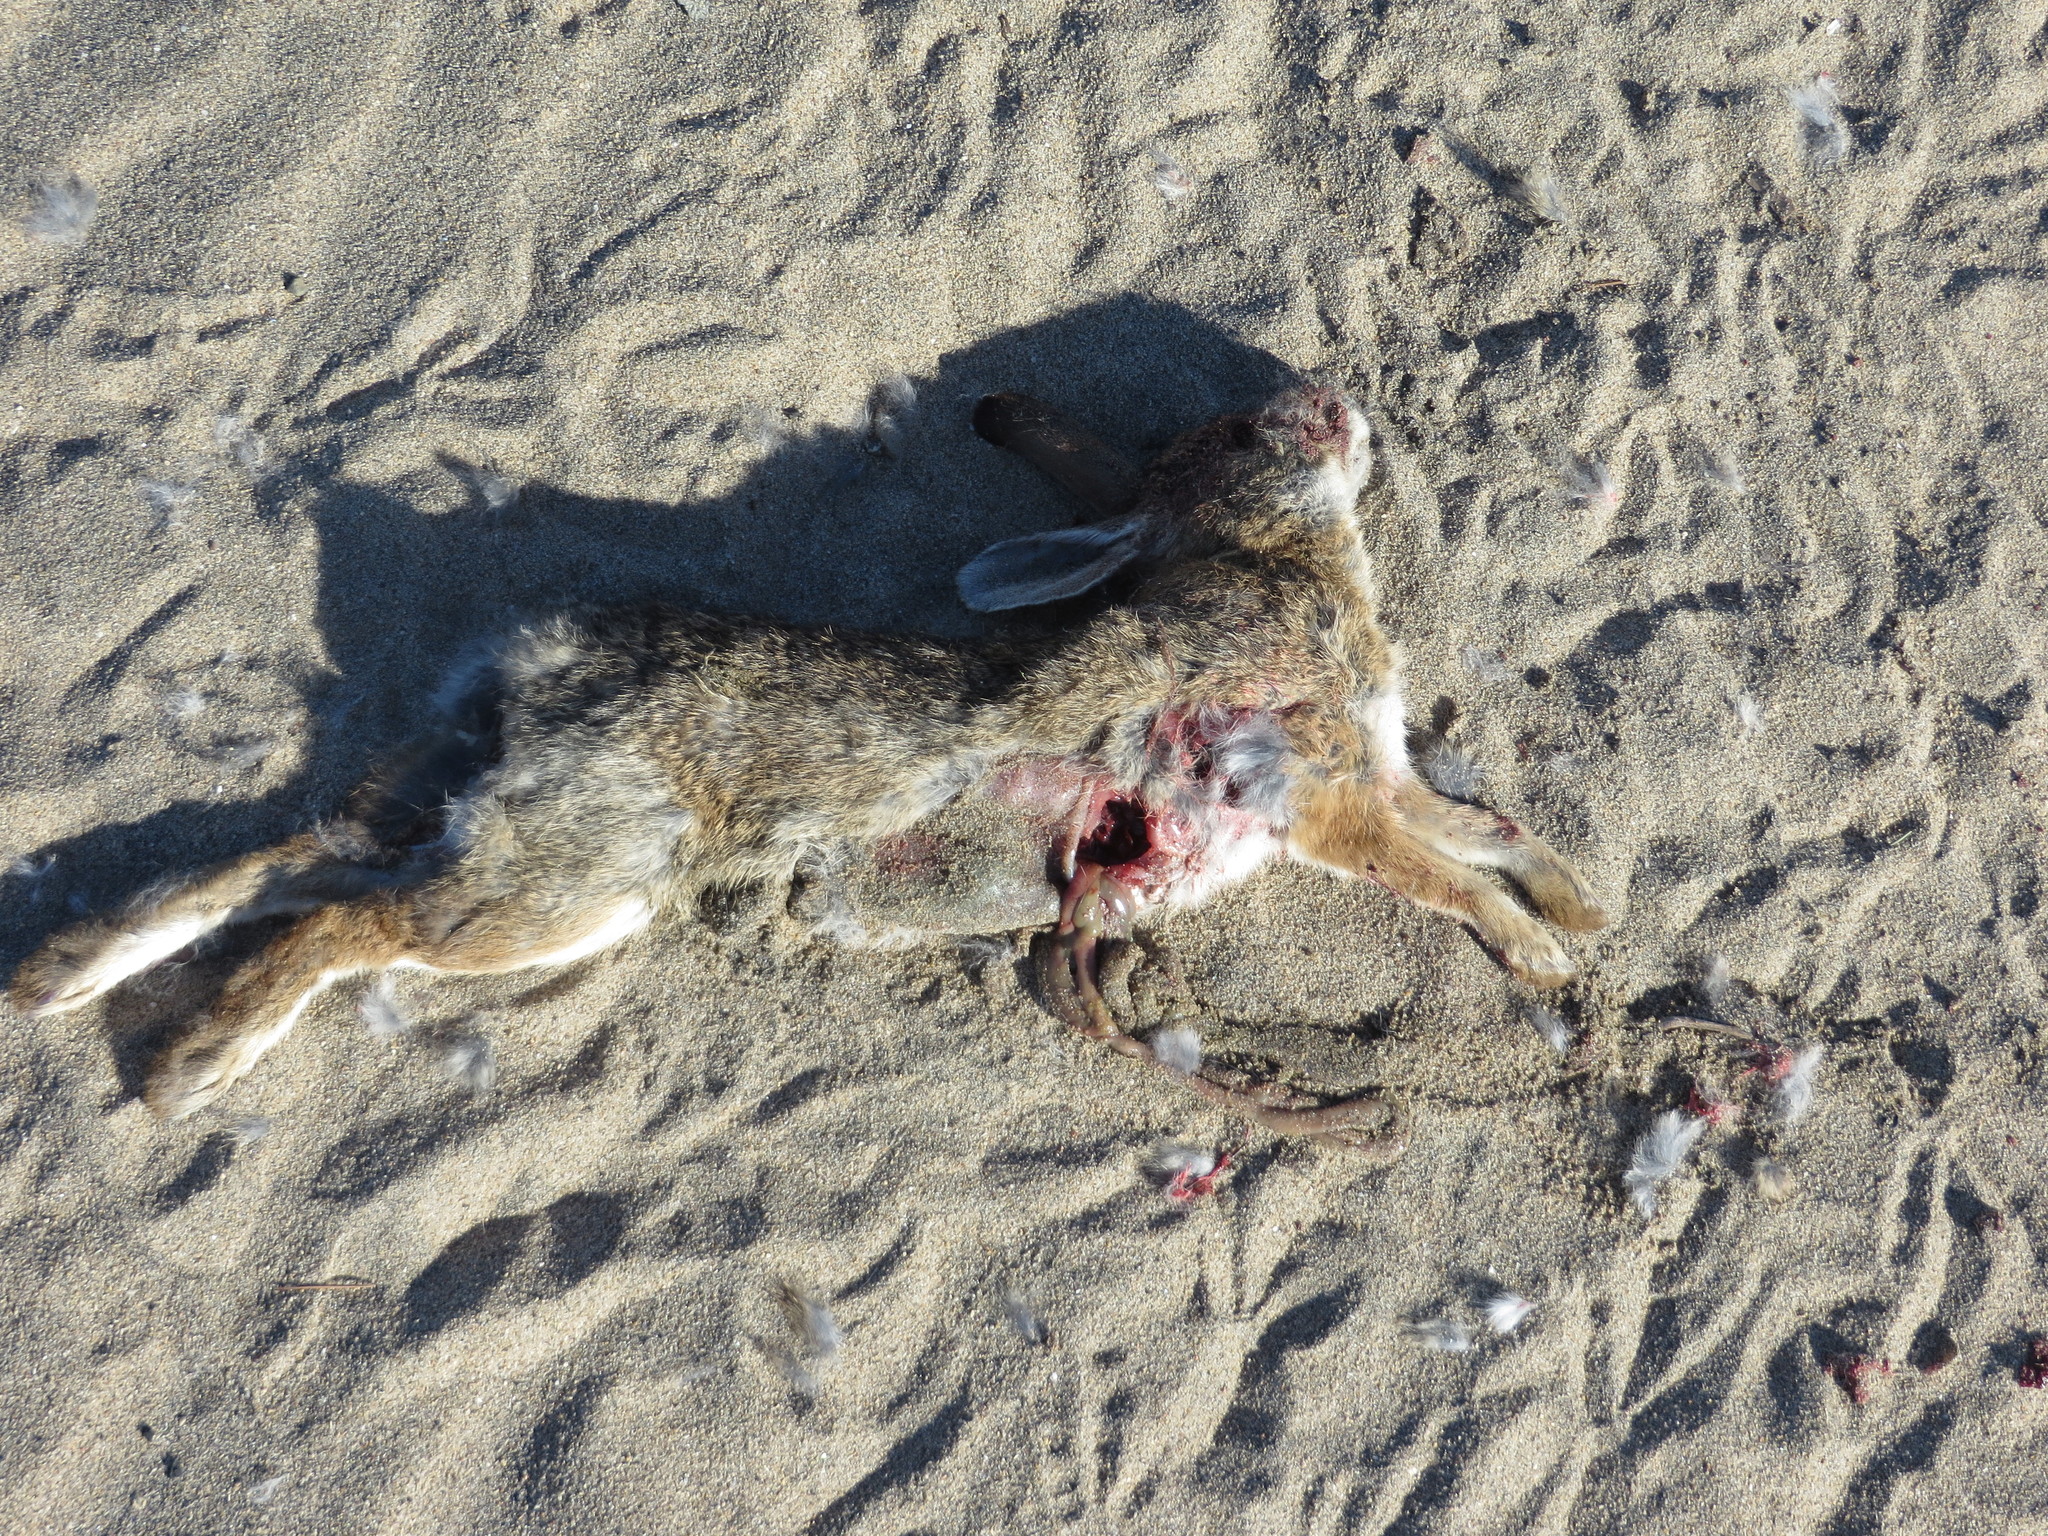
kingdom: Animalia
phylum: Chordata
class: Mammalia
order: Lagomorpha
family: Leporidae
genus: Sylvilagus
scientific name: Sylvilagus audubonii
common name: Desert cottontail
